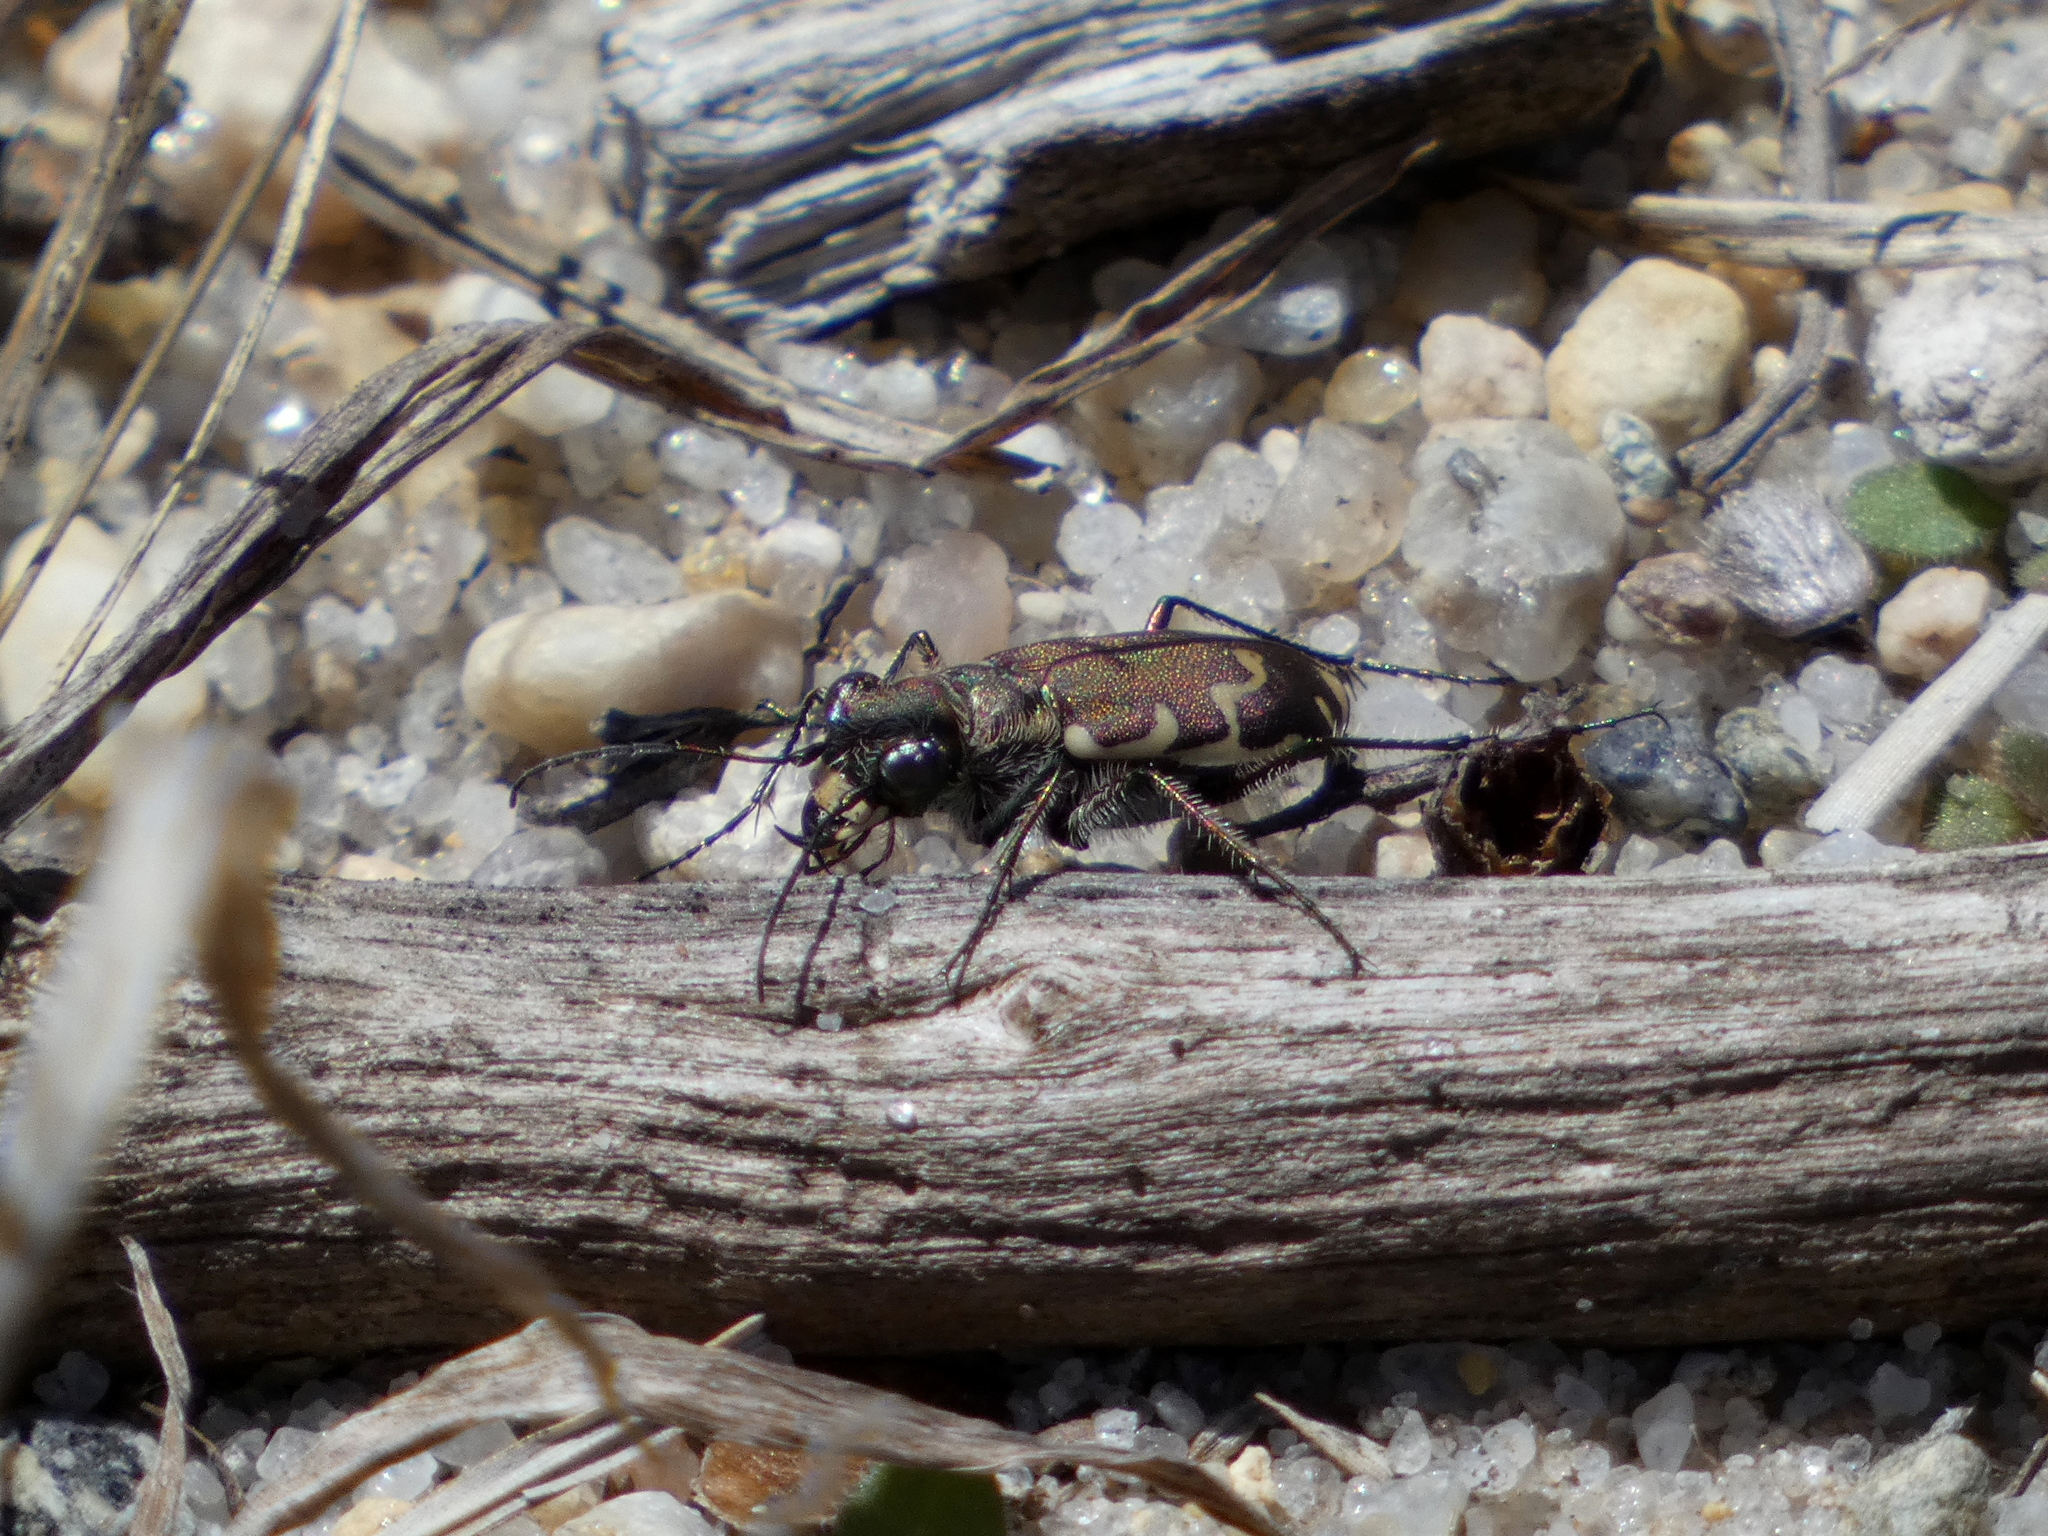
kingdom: Animalia
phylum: Arthropoda
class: Insecta
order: Coleoptera
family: Carabidae
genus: Cicindela
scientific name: Cicindela repanda
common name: Bronzed tiger beetle
